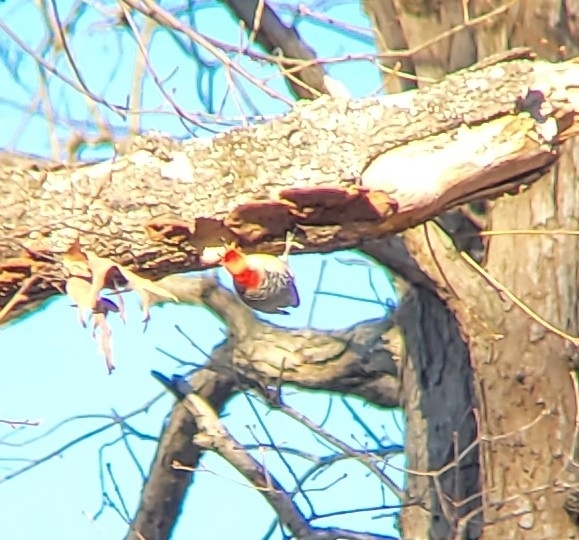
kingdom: Animalia
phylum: Chordata
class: Aves
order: Piciformes
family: Picidae
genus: Melanerpes
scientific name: Melanerpes carolinus
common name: Red-bellied woodpecker
